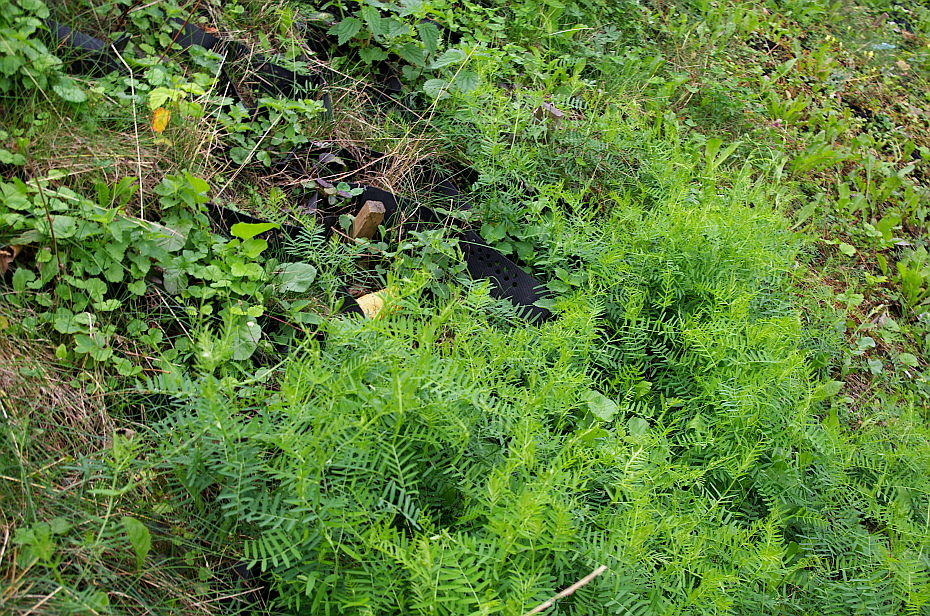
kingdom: Plantae
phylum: Tracheophyta
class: Magnoliopsida
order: Fabales
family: Fabaceae
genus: Vicia
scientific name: Vicia cracca
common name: Bird vetch
